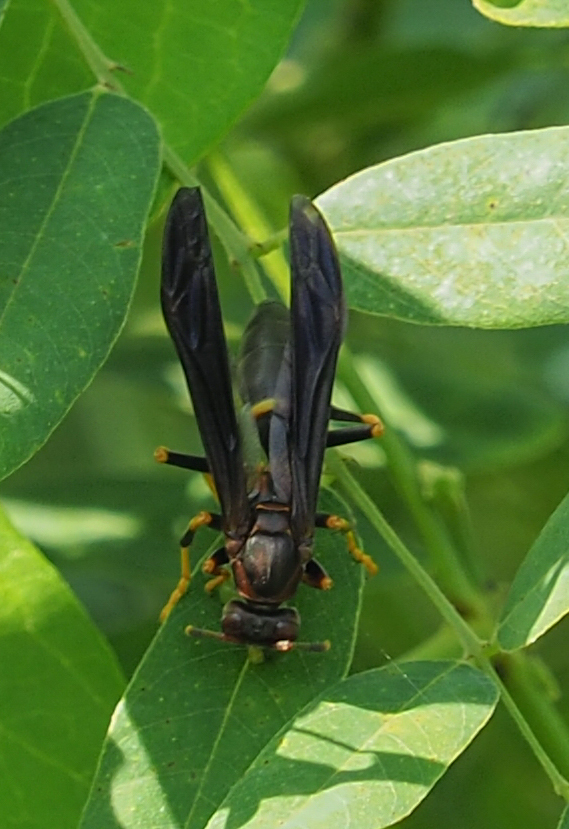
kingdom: Animalia
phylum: Arthropoda
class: Insecta
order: Hymenoptera
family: Eumenidae
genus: Polistes
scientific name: Polistes annularis
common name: Ringed paper wasp
